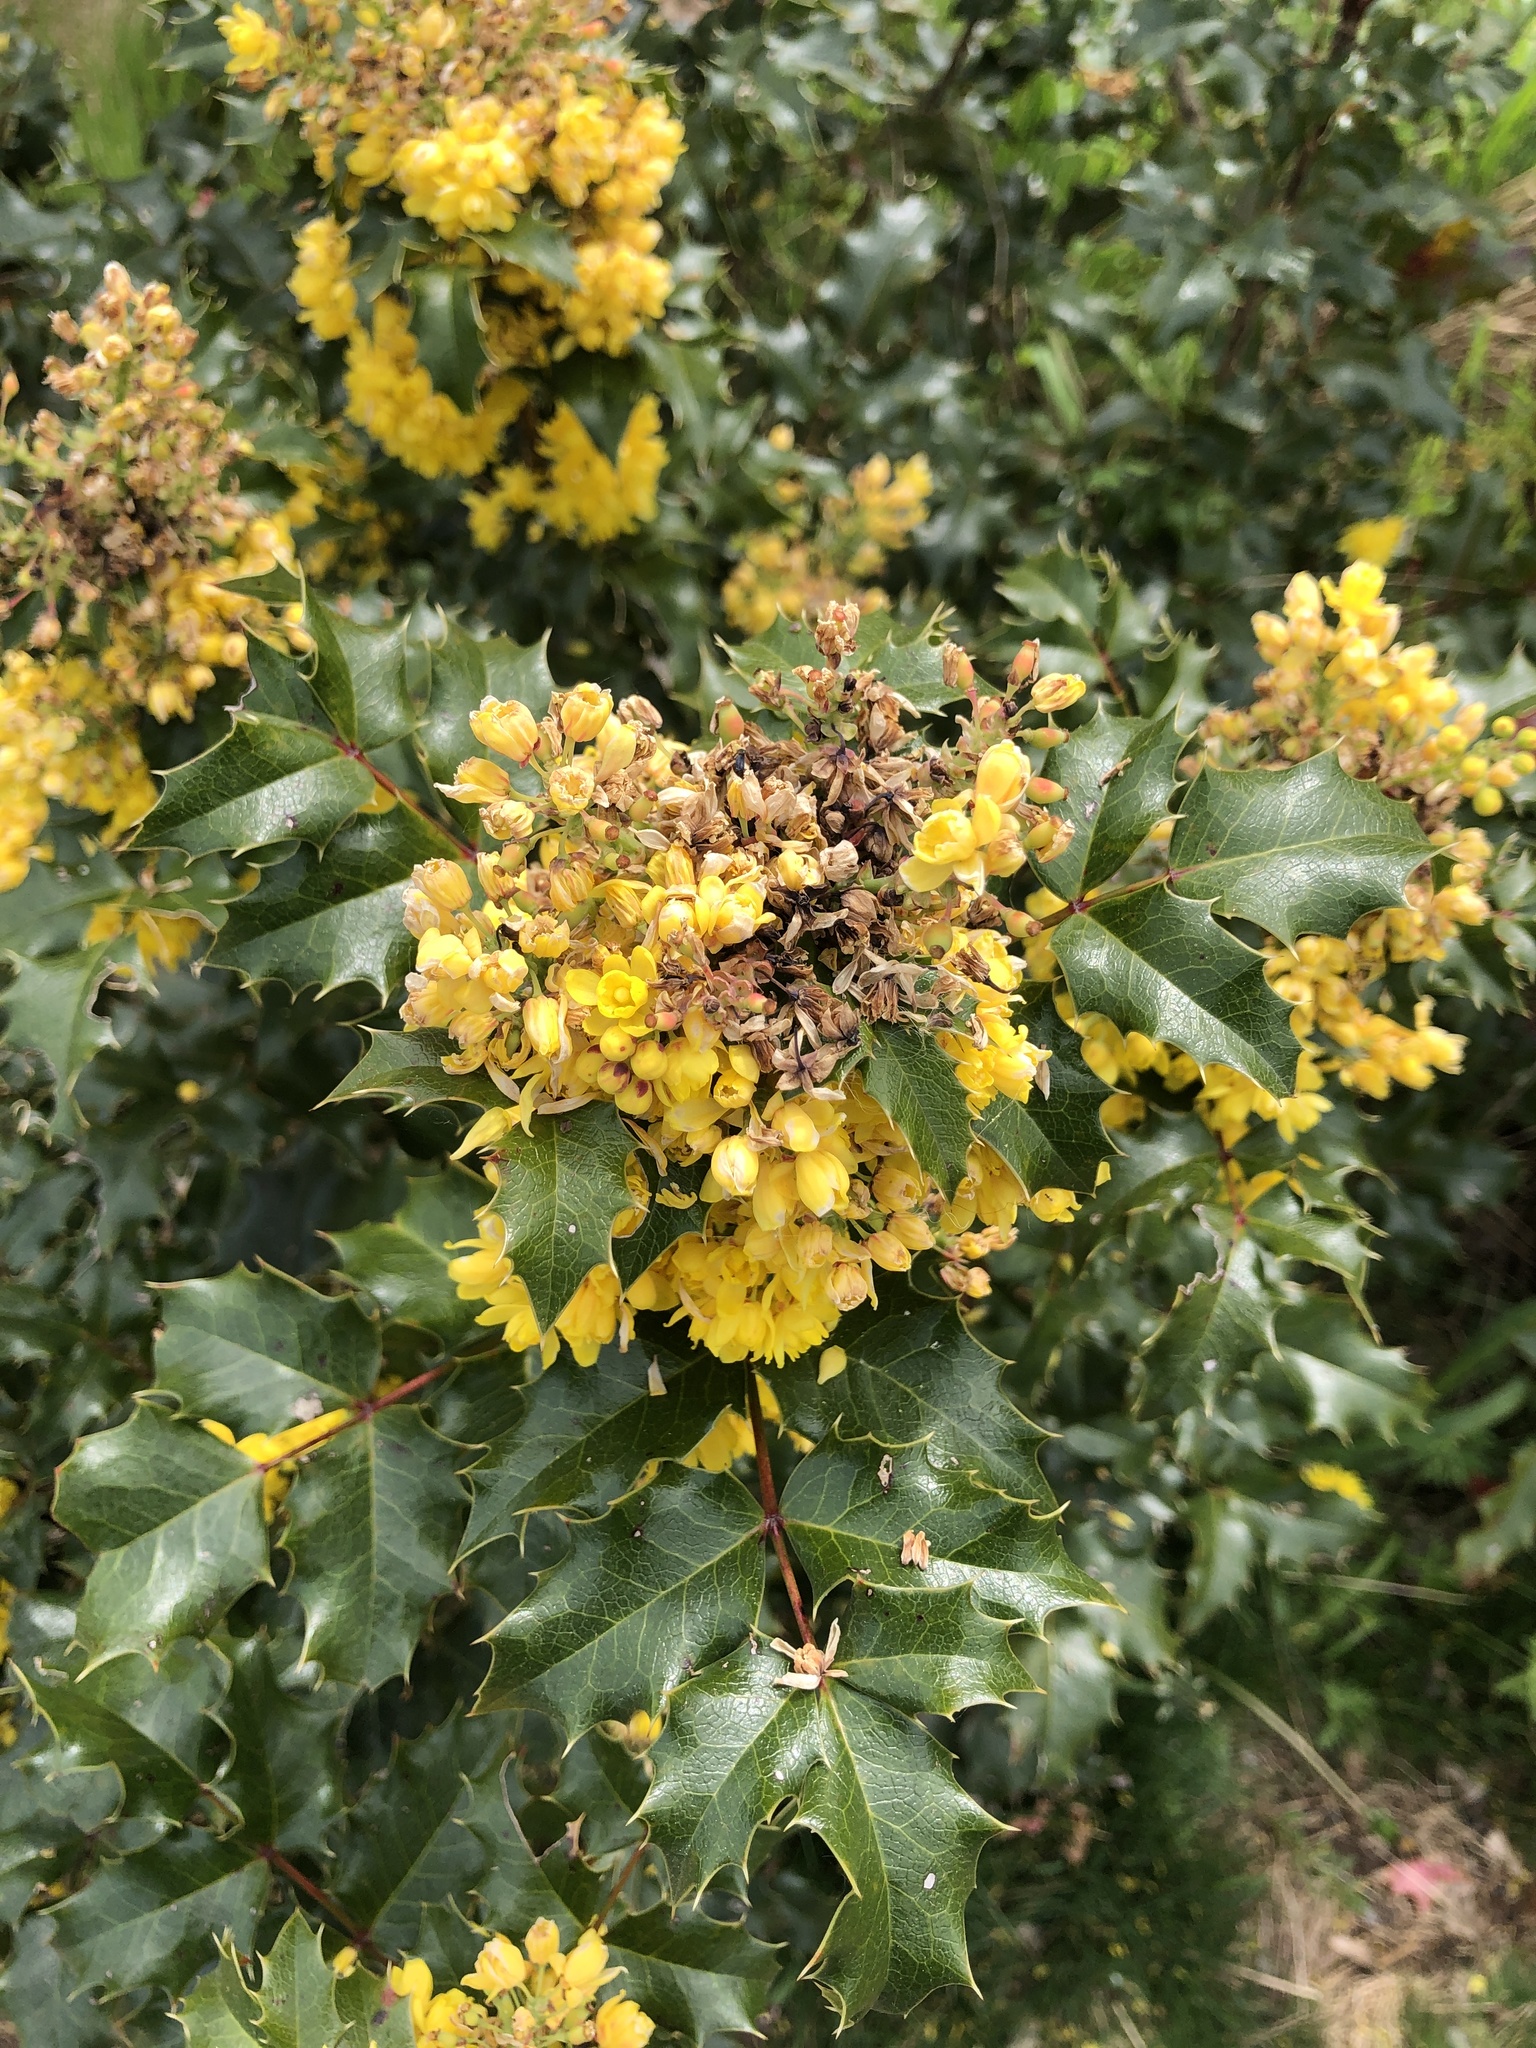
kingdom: Plantae
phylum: Tracheophyta
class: Magnoliopsida
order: Ranunculales
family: Berberidaceae
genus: Mahonia
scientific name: Mahonia aquifolium
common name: Oregon-grape
